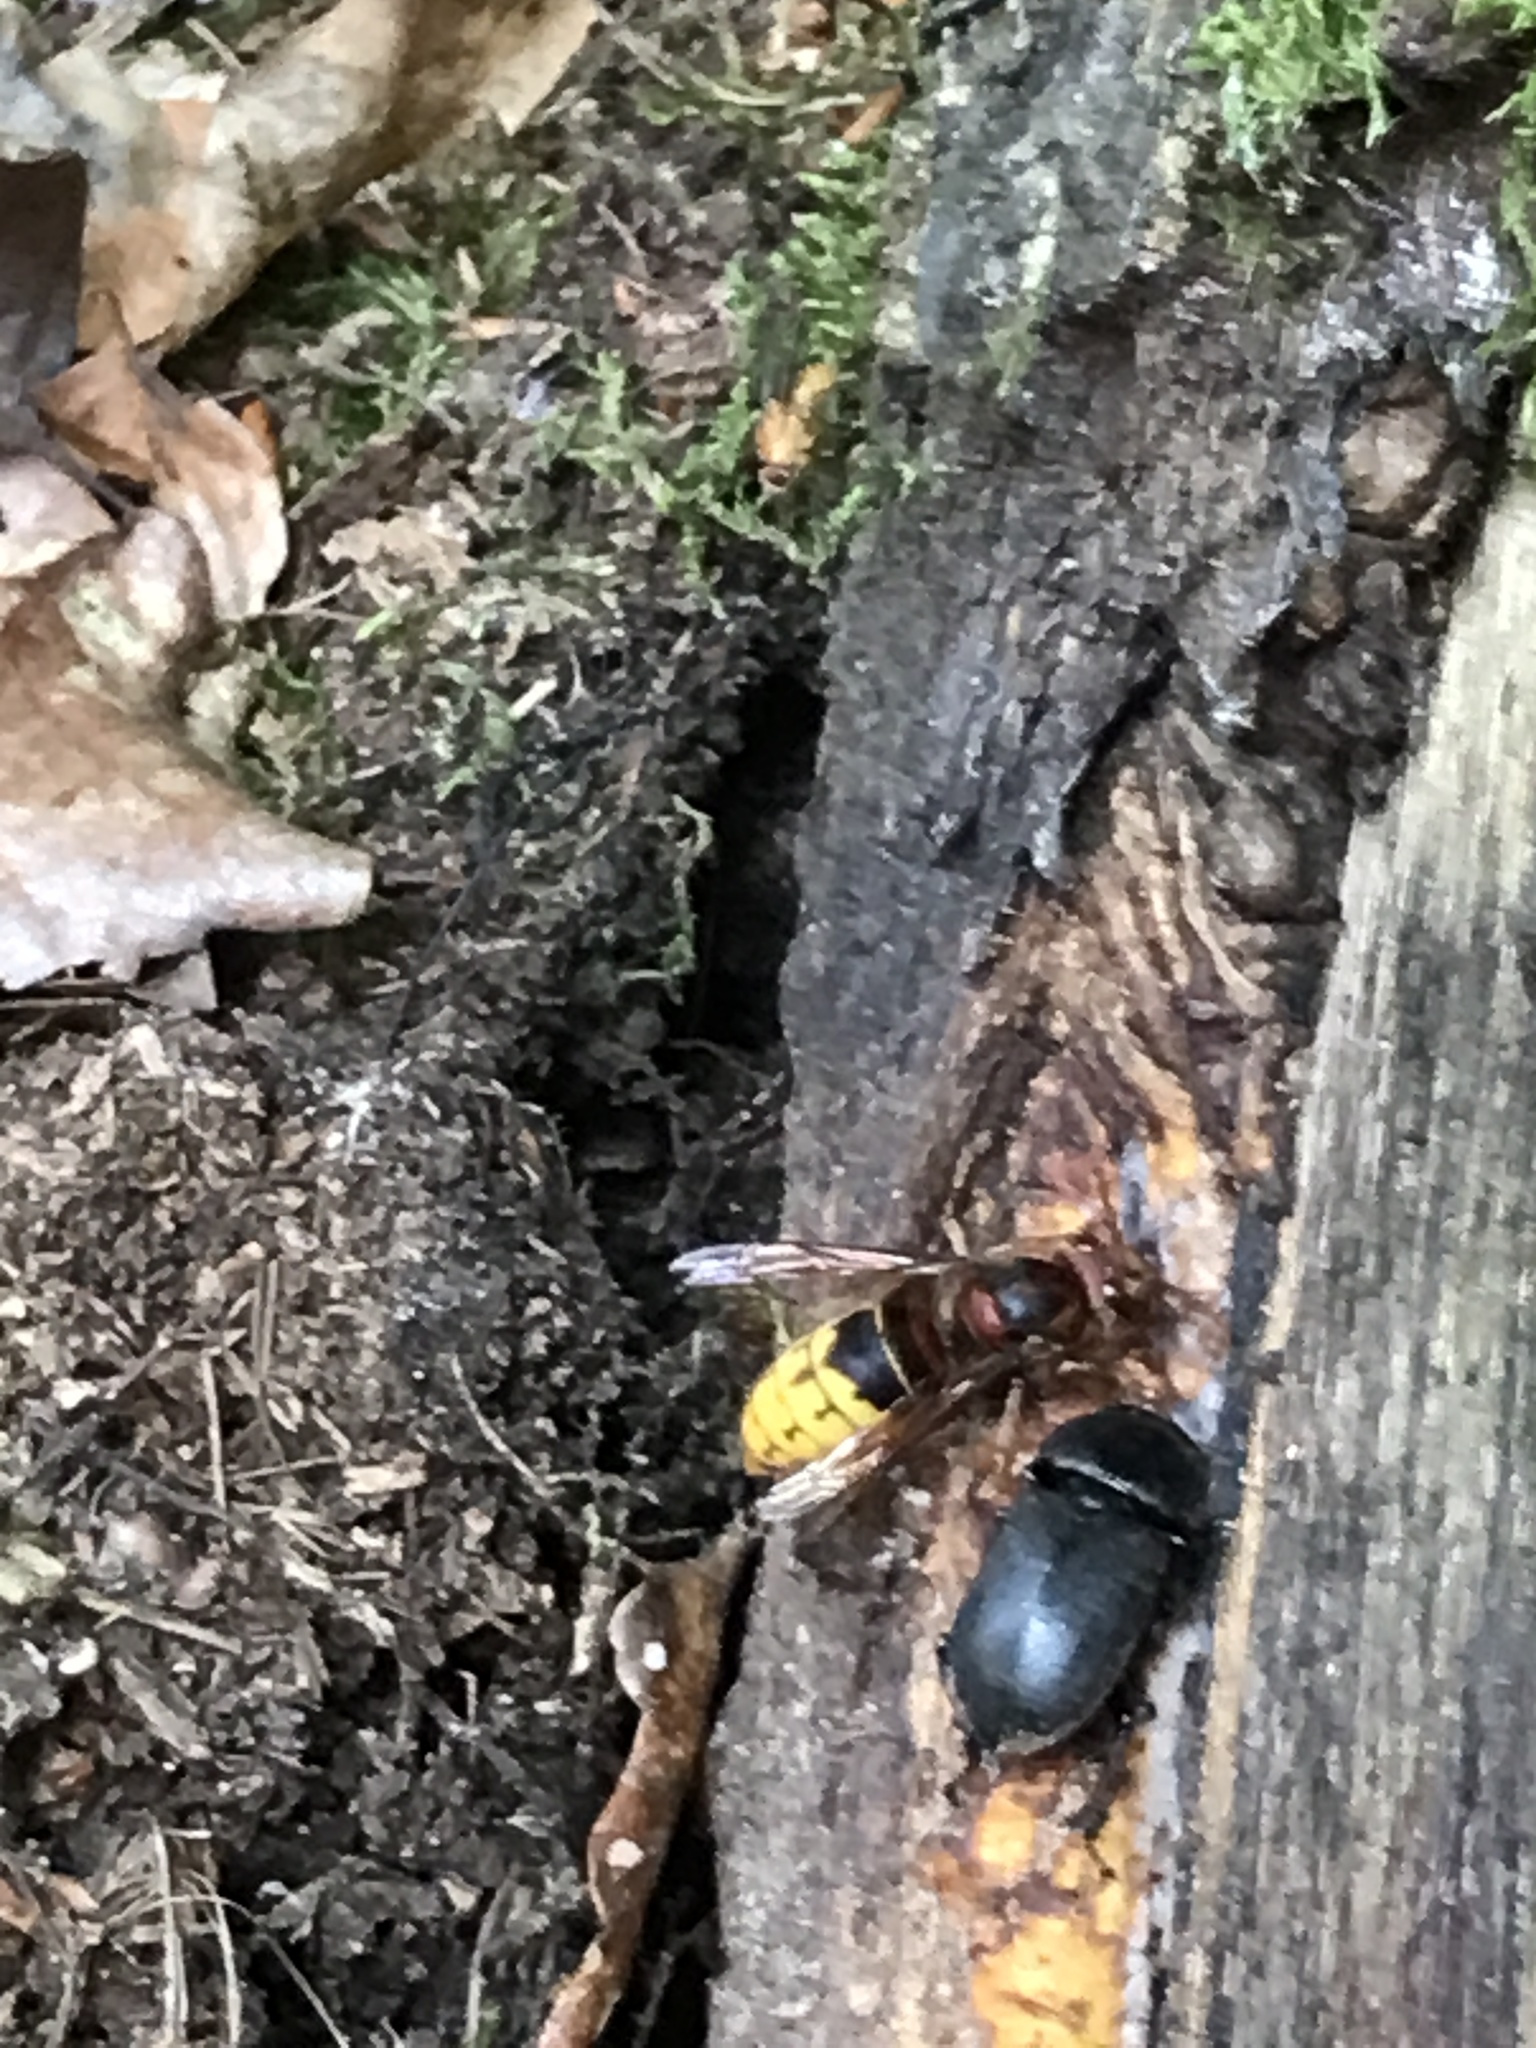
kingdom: Animalia
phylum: Arthropoda
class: Insecta
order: Hymenoptera
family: Vespidae
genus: Vespa
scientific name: Vespa crabro
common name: Hornet
